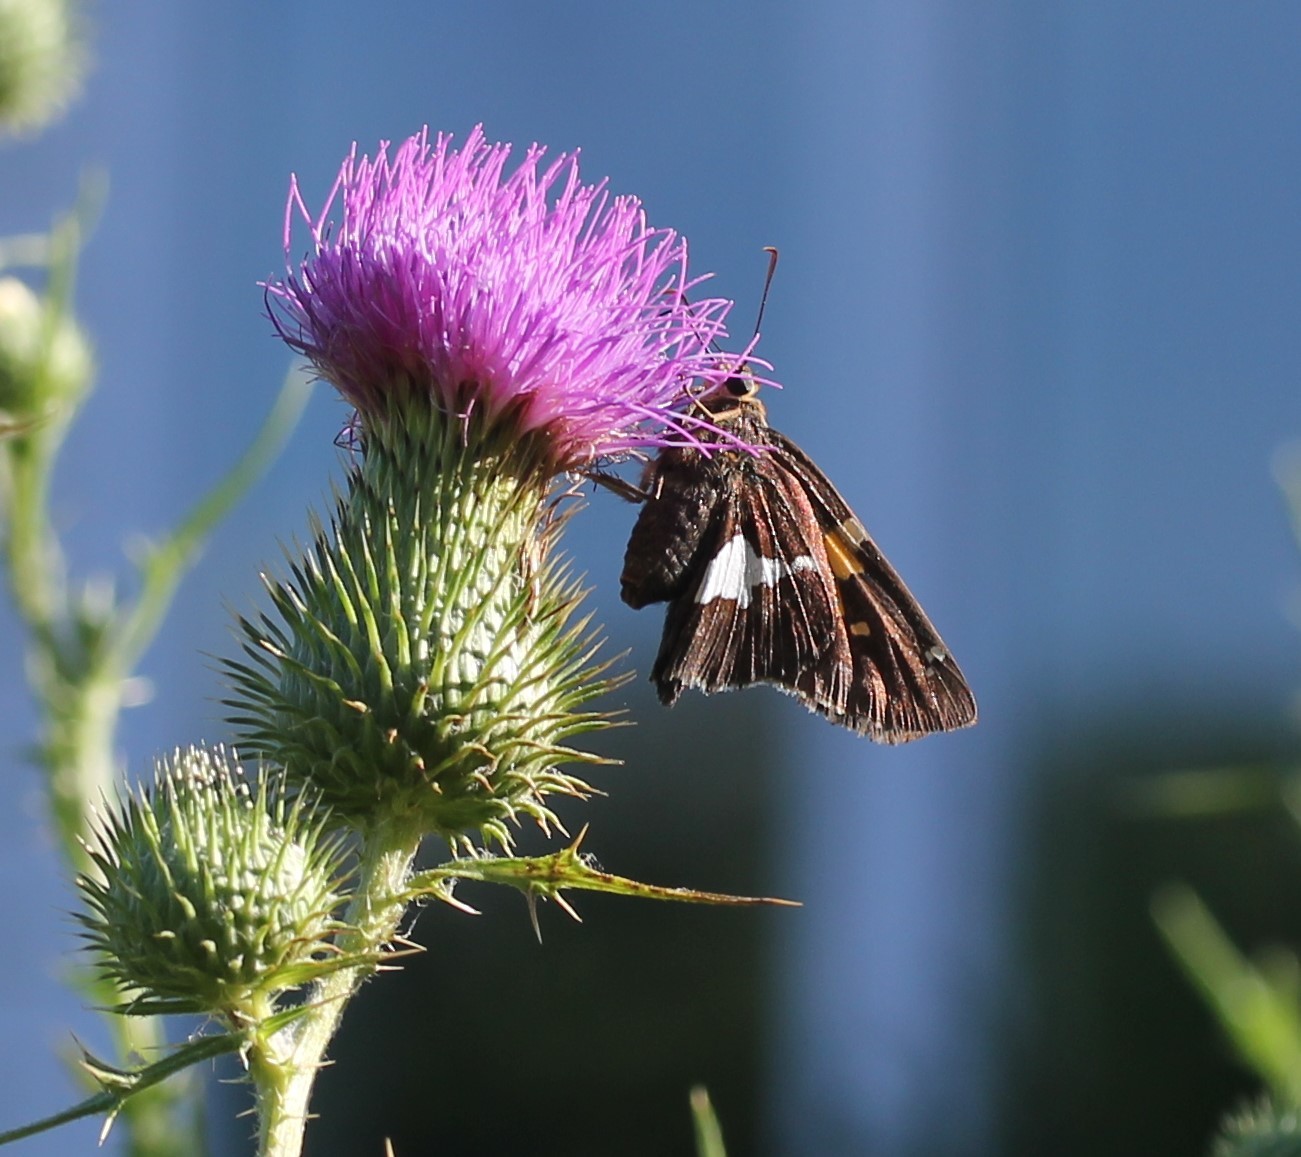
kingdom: Animalia
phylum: Arthropoda
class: Insecta
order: Lepidoptera
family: Hesperiidae
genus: Epargyreus
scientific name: Epargyreus clarus
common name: Silver-spotted skipper
